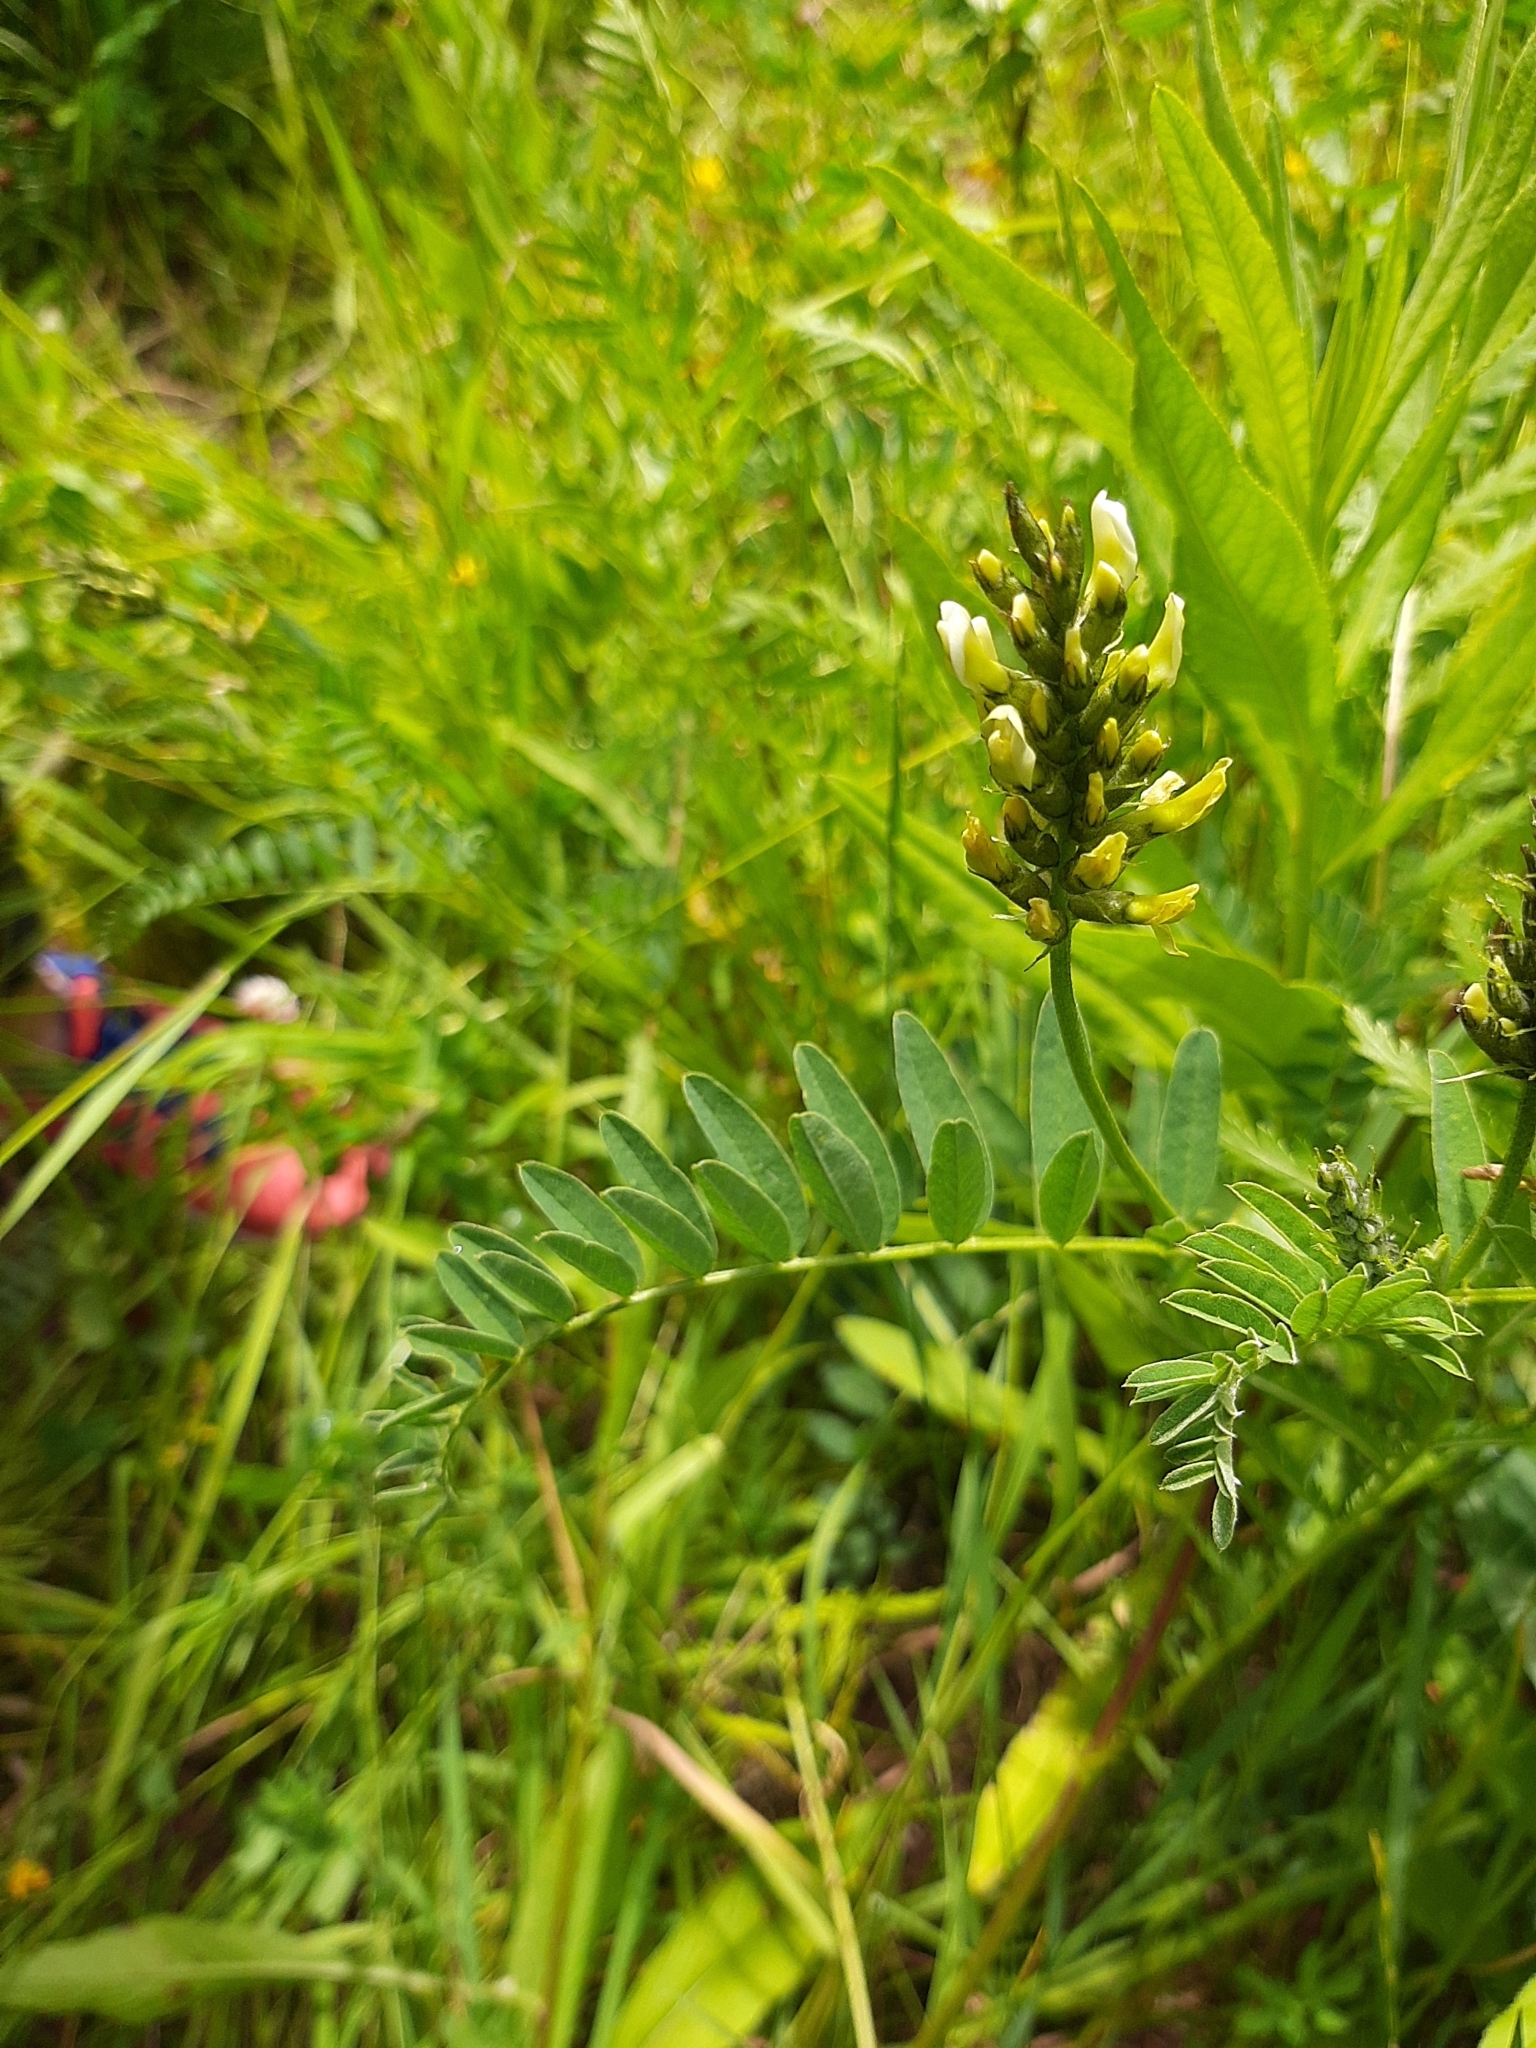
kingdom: Plantae
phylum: Tracheophyta
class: Magnoliopsida
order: Fabales
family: Fabaceae
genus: Astragalus
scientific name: Astragalus cicer
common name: Chick-pea milk-vetch
